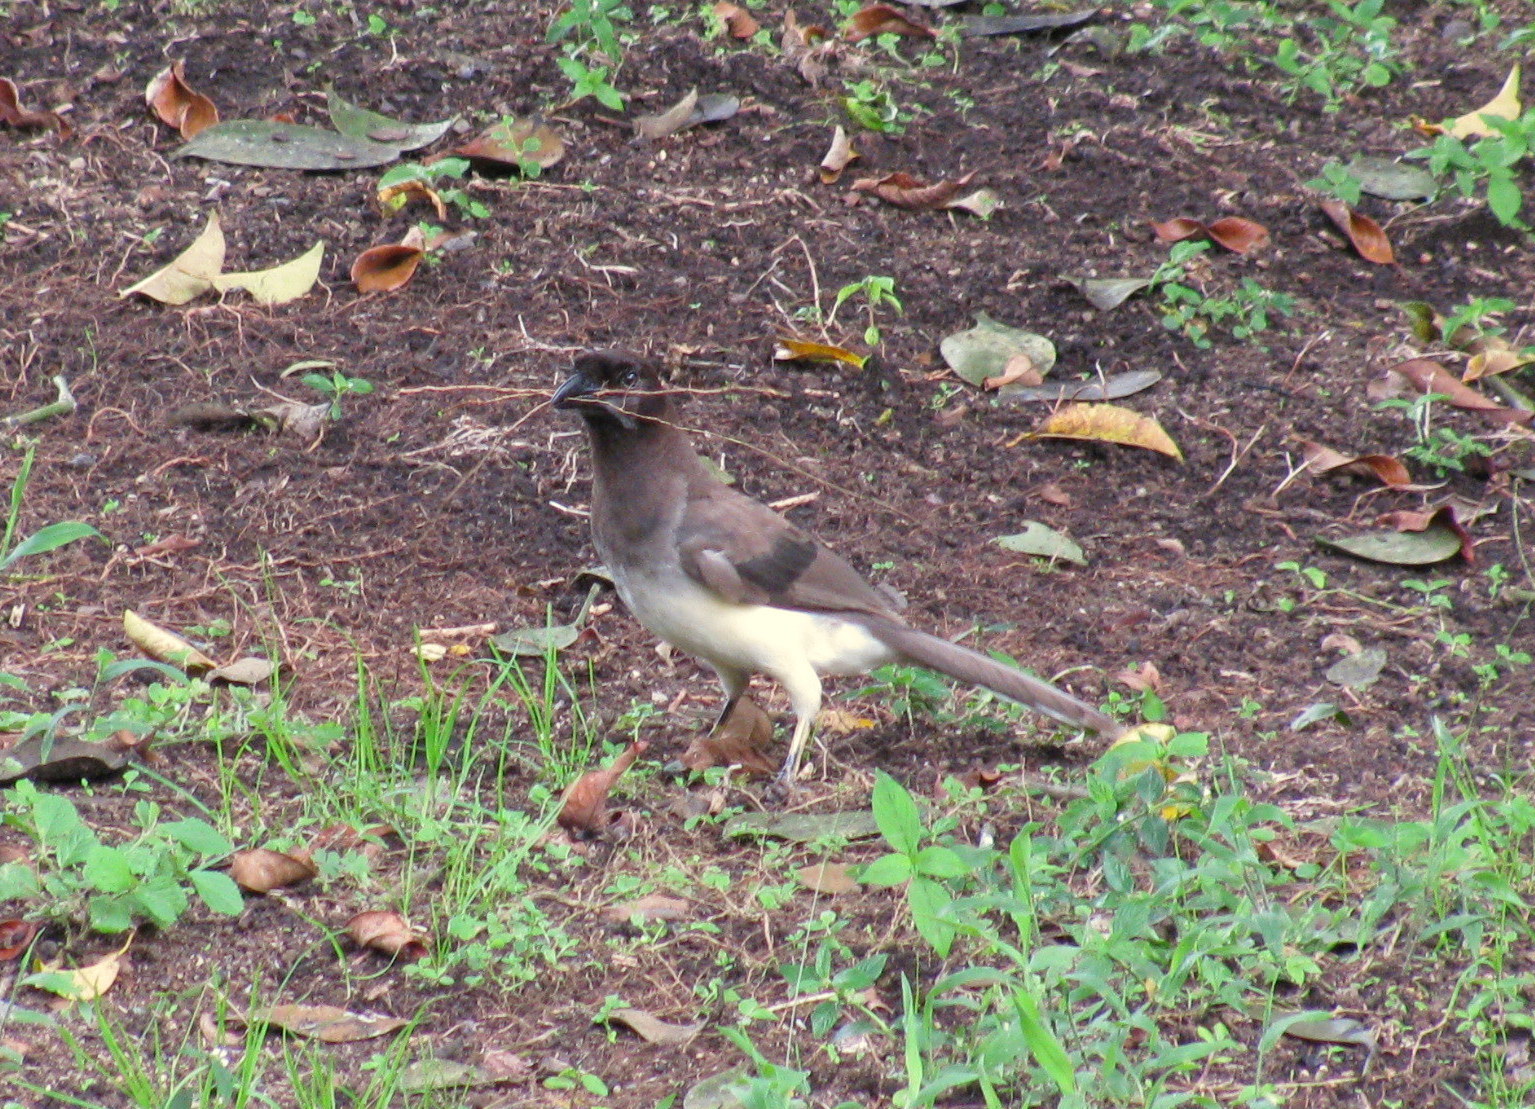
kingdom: Animalia
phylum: Chordata
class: Aves
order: Passeriformes
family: Corvidae
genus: Psilorhinus
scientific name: Psilorhinus morio
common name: Brown jay
